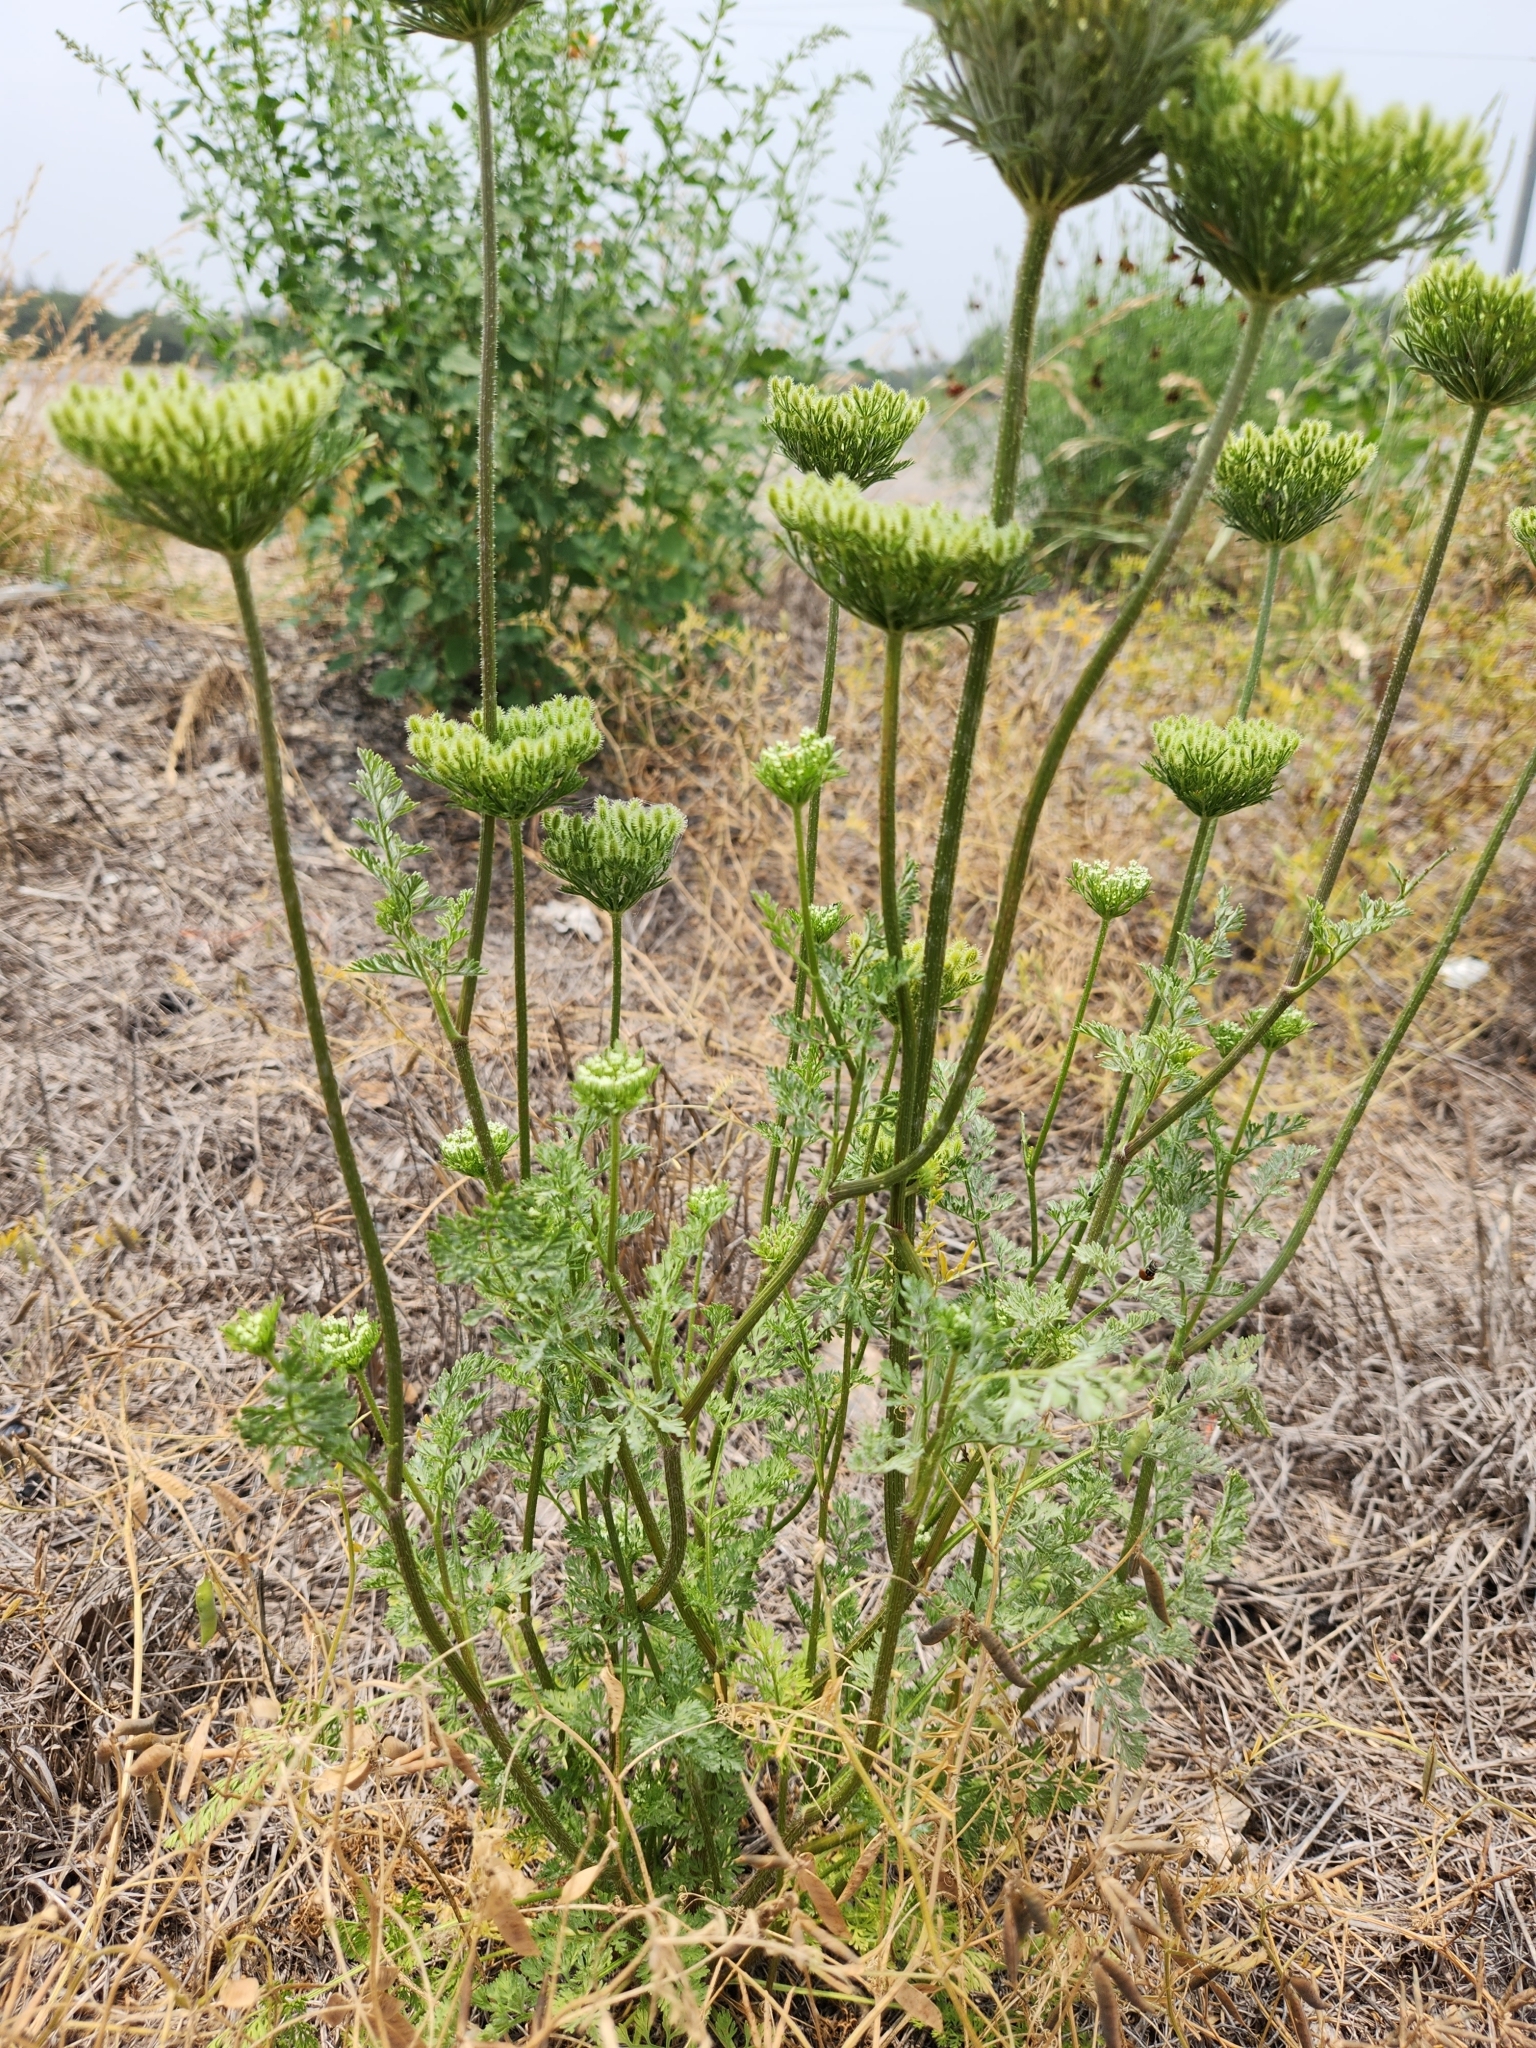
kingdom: Plantae
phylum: Tracheophyta
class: Magnoliopsida
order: Apiales
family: Apiaceae
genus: Daucus
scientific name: Daucus pusillus
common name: Southwest wild carrot
